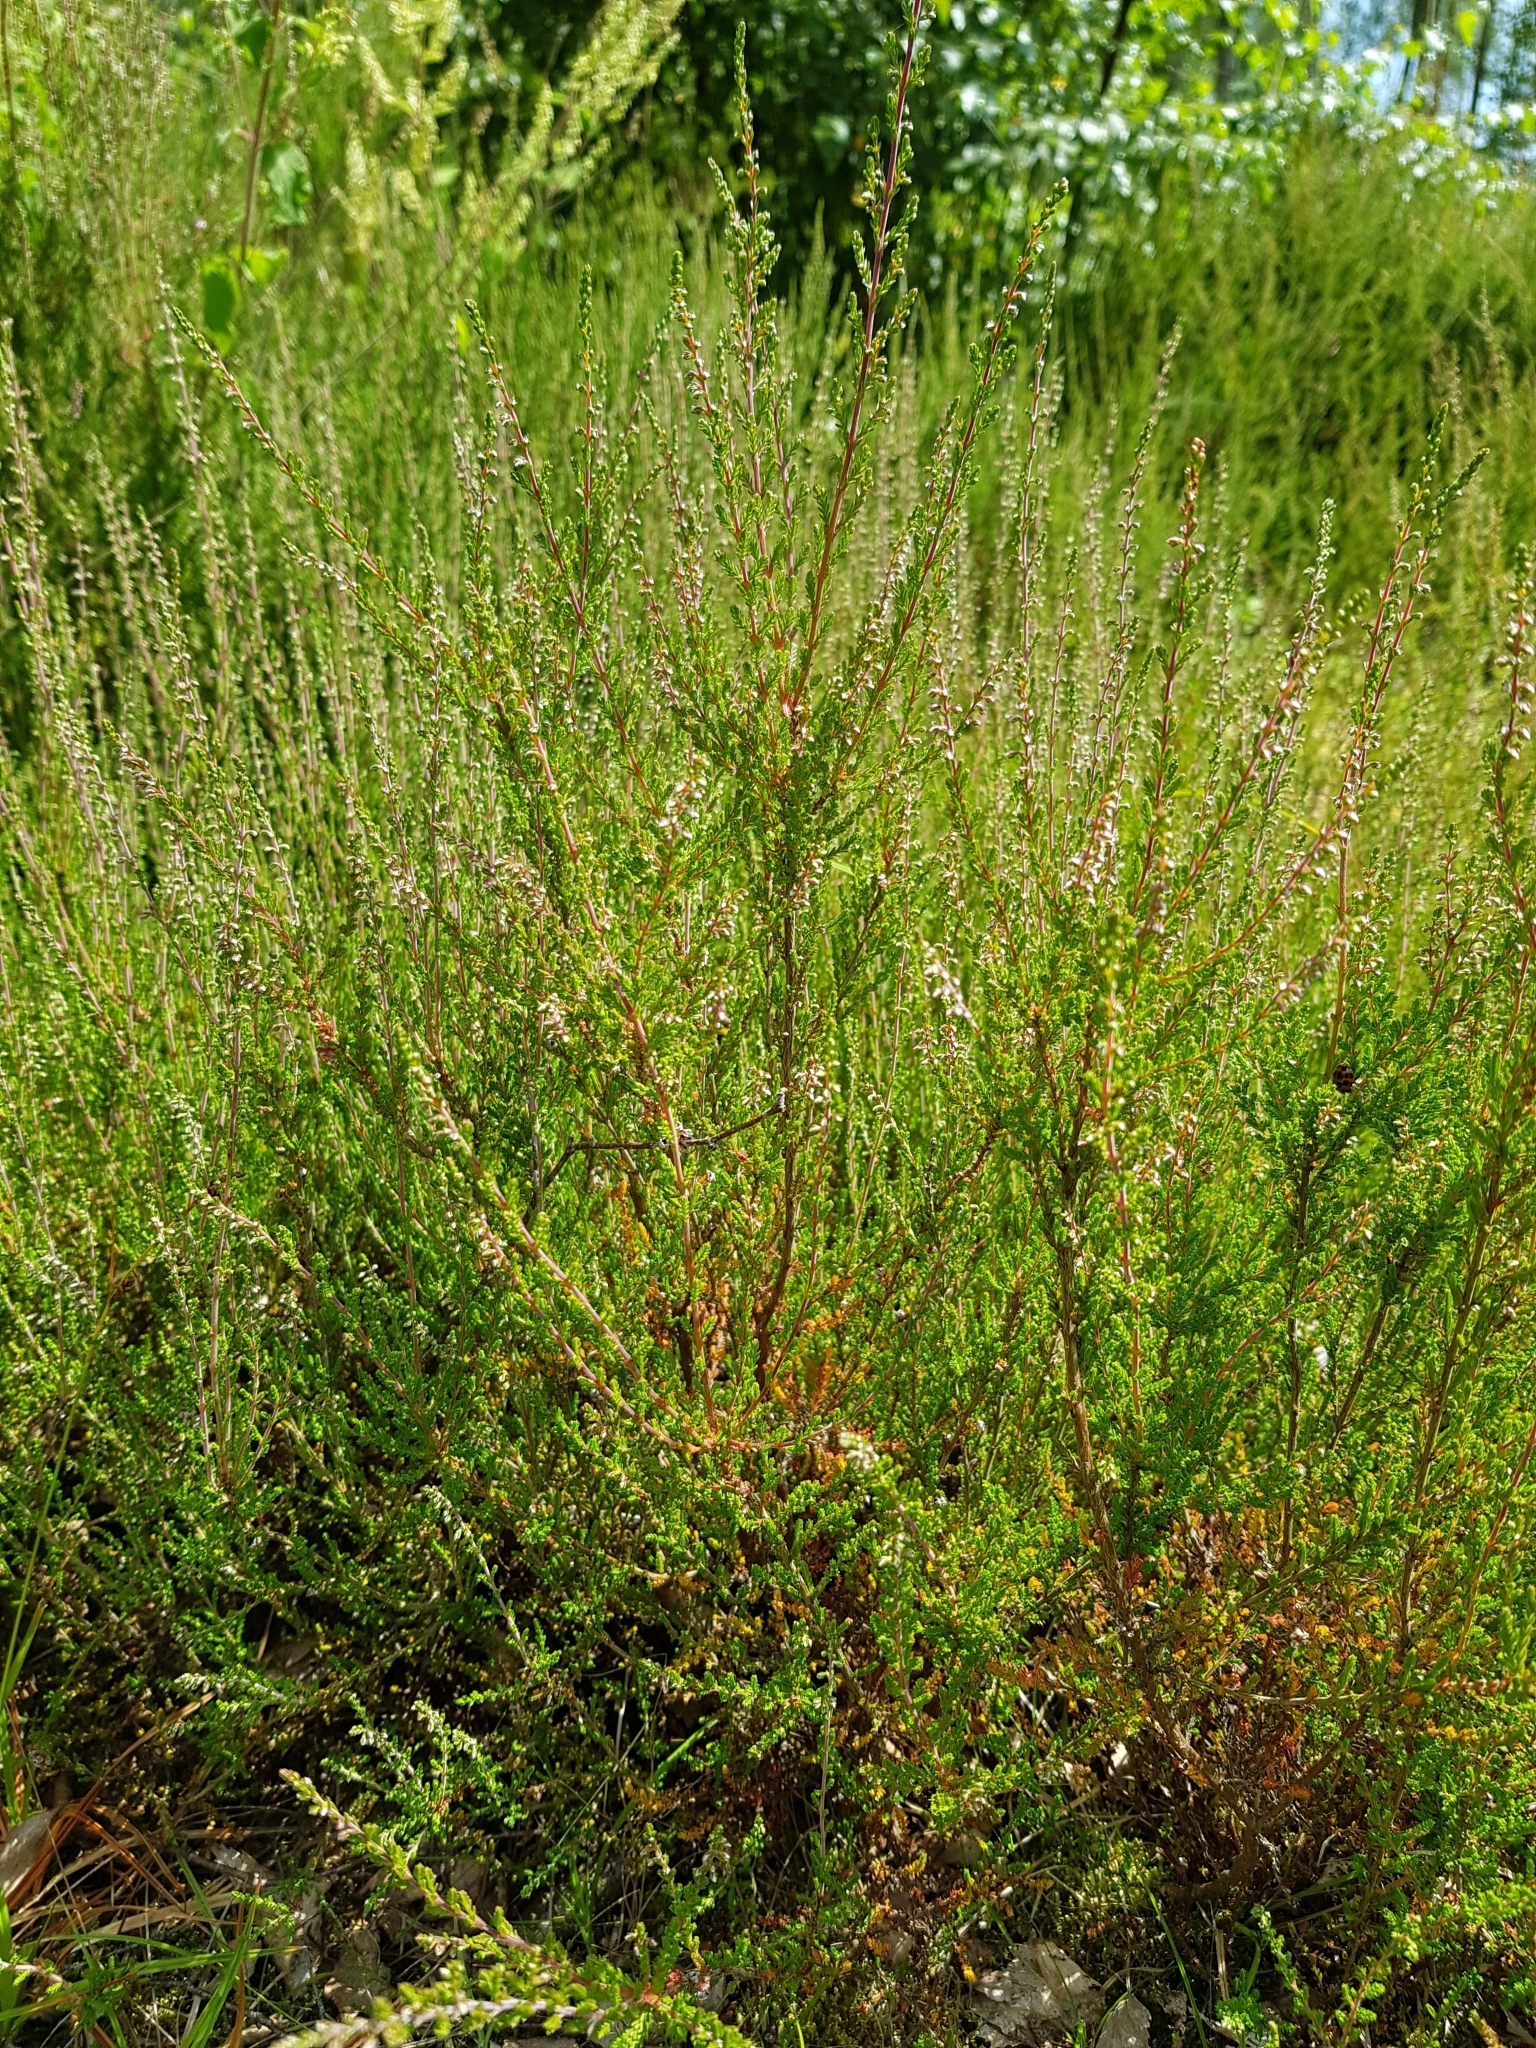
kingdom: Plantae
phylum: Tracheophyta
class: Magnoliopsida
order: Ericales
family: Ericaceae
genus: Calluna
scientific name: Calluna vulgaris
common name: Heather
